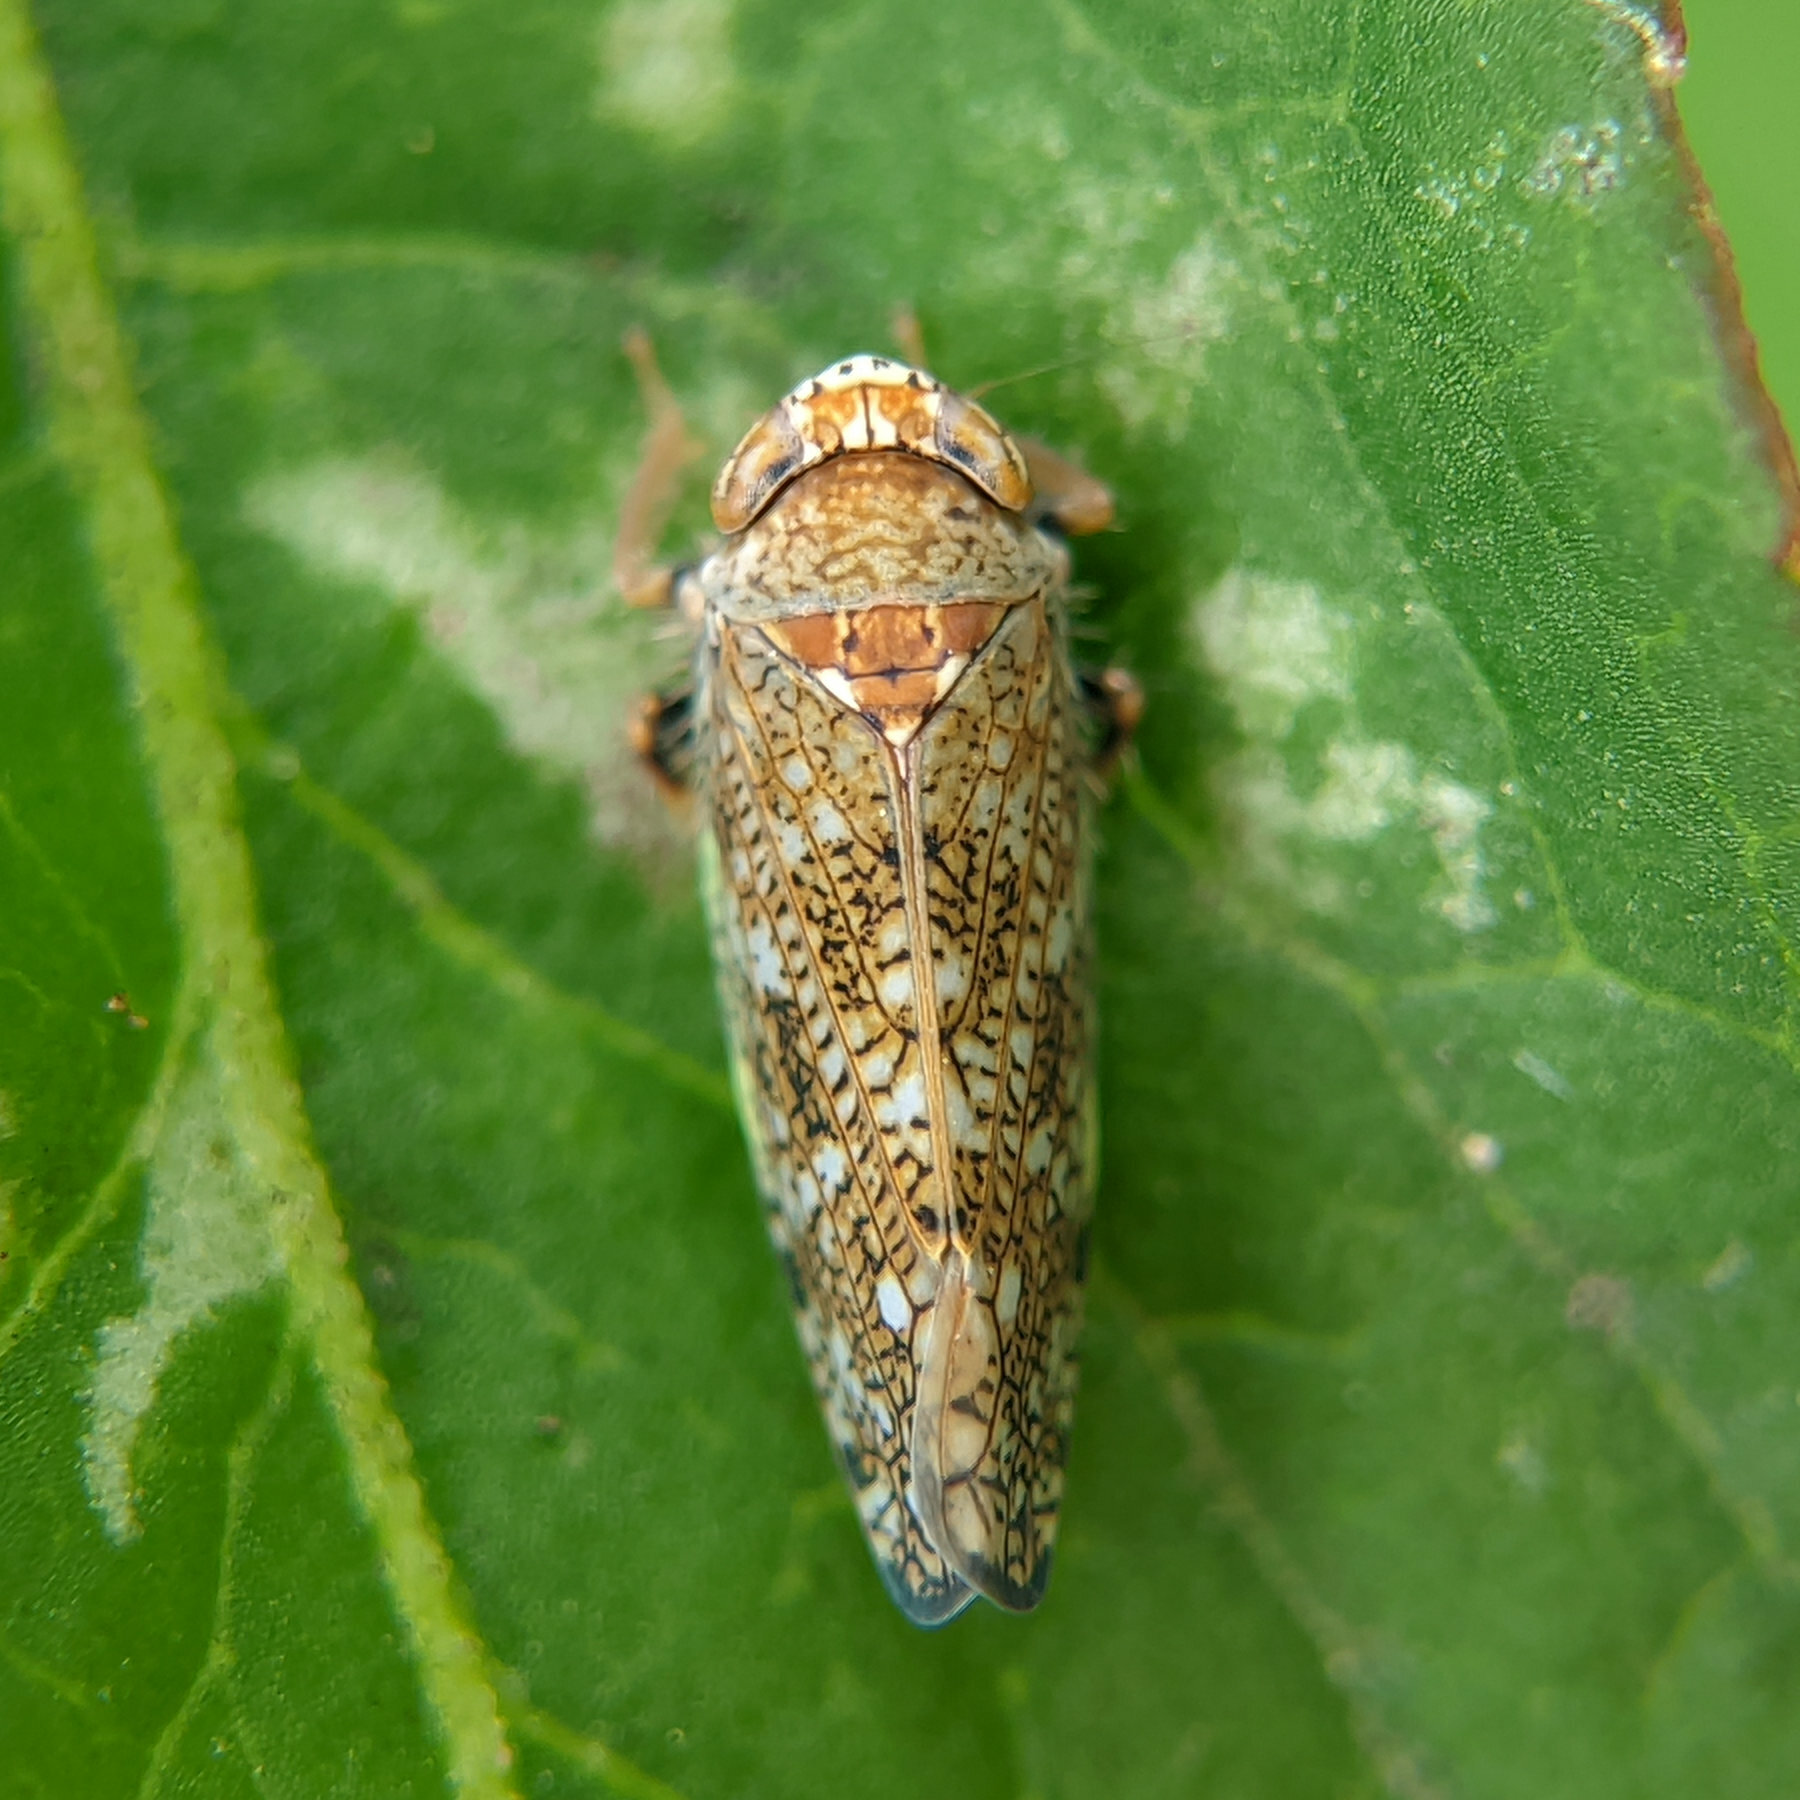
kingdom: Animalia
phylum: Arthropoda
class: Insecta
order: Hemiptera
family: Cicadellidae
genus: Orientus
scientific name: Orientus ishidae
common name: Japanese leafhopper
